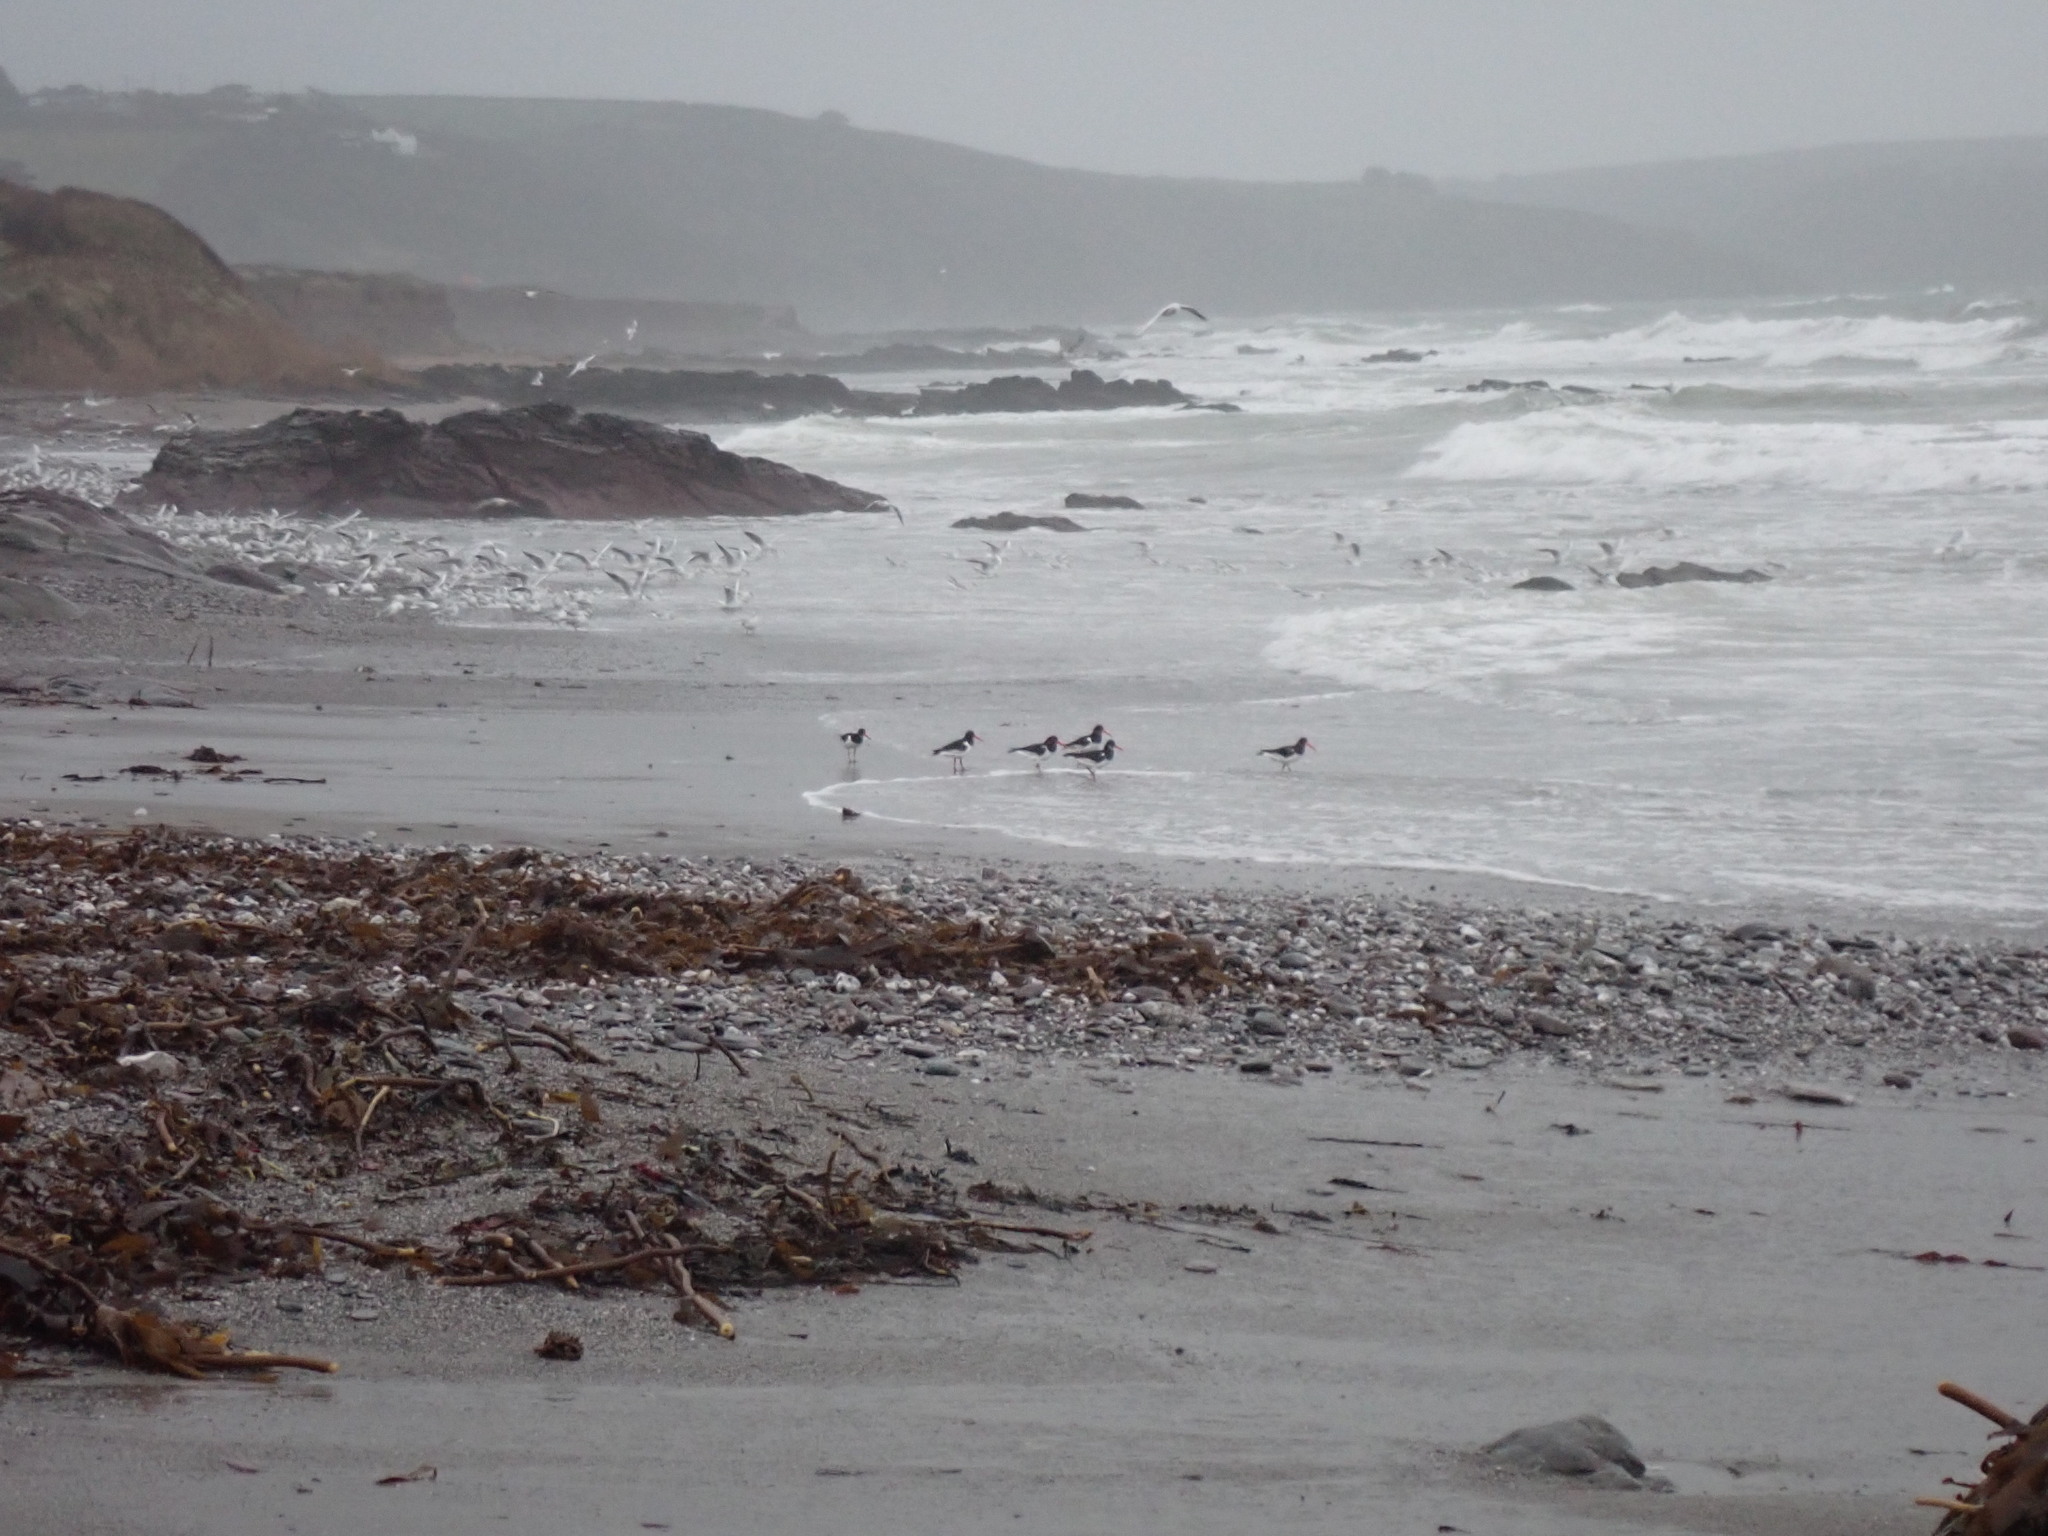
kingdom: Animalia
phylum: Chordata
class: Aves
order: Charadriiformes
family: Haematopodidae
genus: Haematopus
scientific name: Haematopus ostralegus
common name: Eurasian oystercatcher
